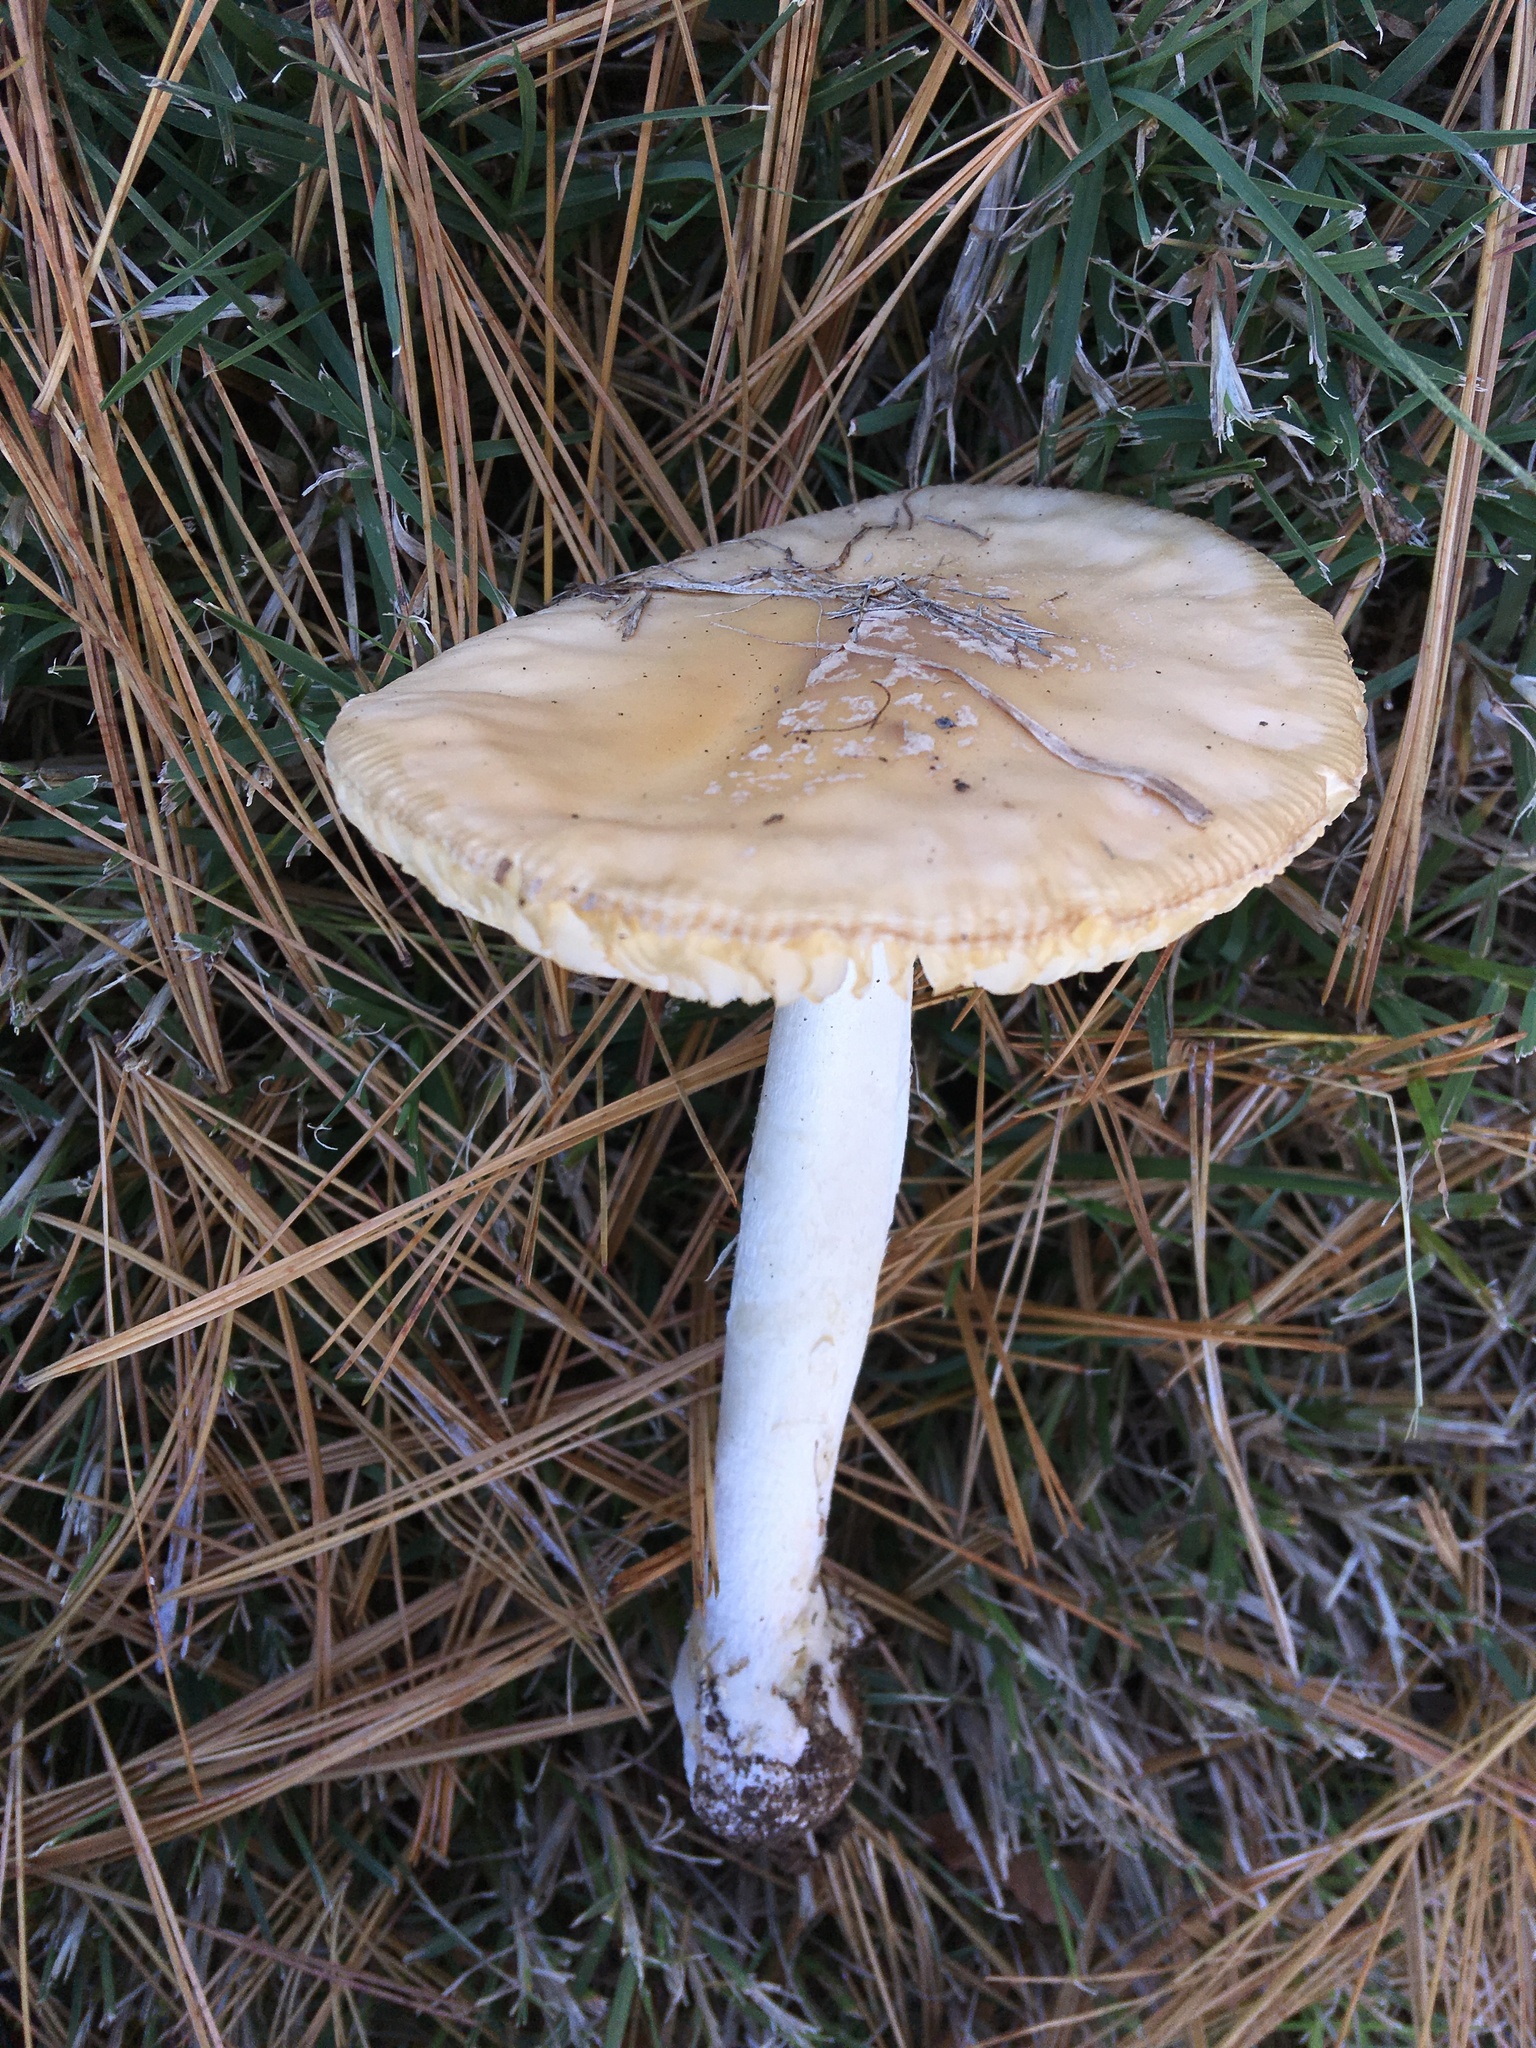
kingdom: Fungi
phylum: Basidiomycota
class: Agaricomycetes
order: Agaricales
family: Amanitaceae
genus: Amanita
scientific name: Amanita crenulata
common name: Poison champagne amanita
